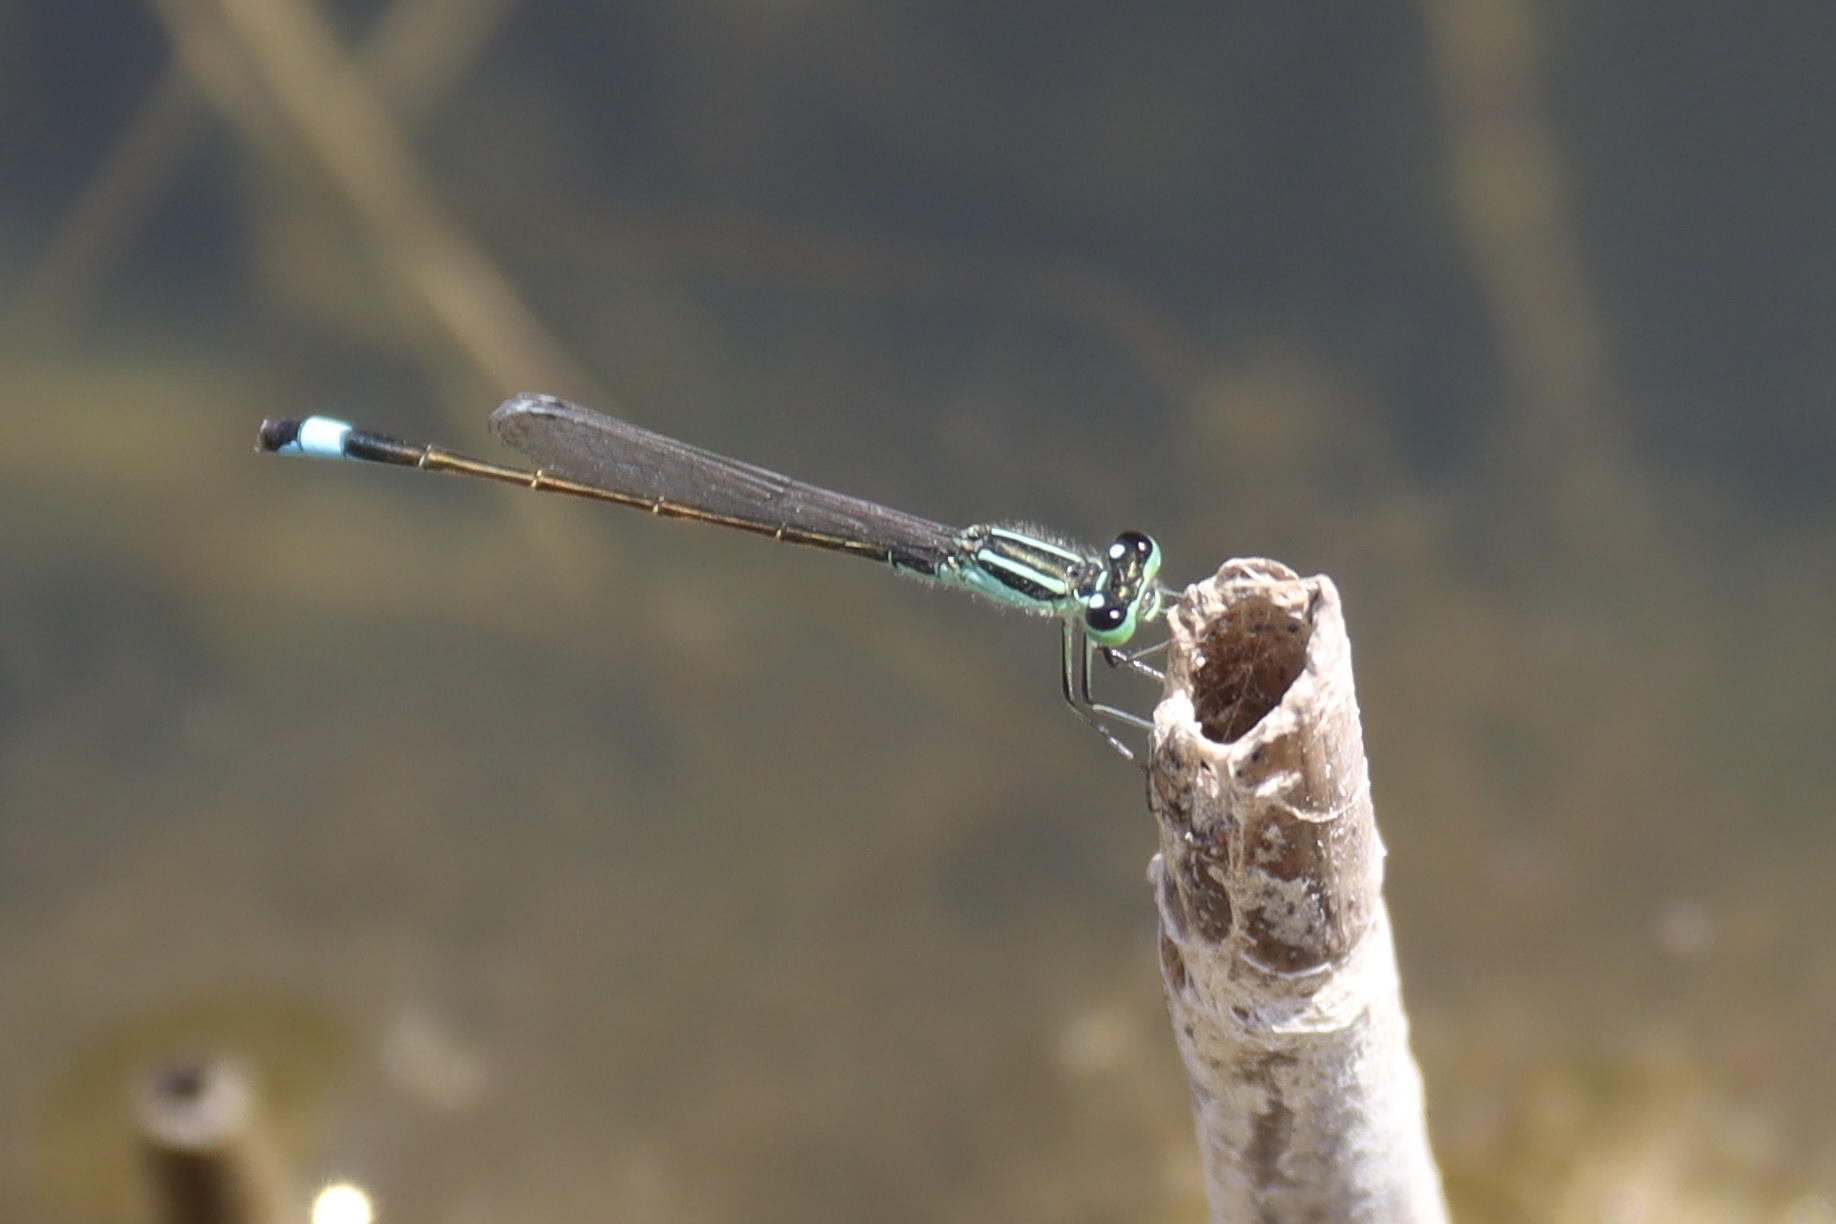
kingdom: Animalia
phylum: Arthropoda
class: Insecta
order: Odonata
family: Coenagrionidae
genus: Ischnura
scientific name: Ischnura elegans
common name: Blue-tailed damselfly
